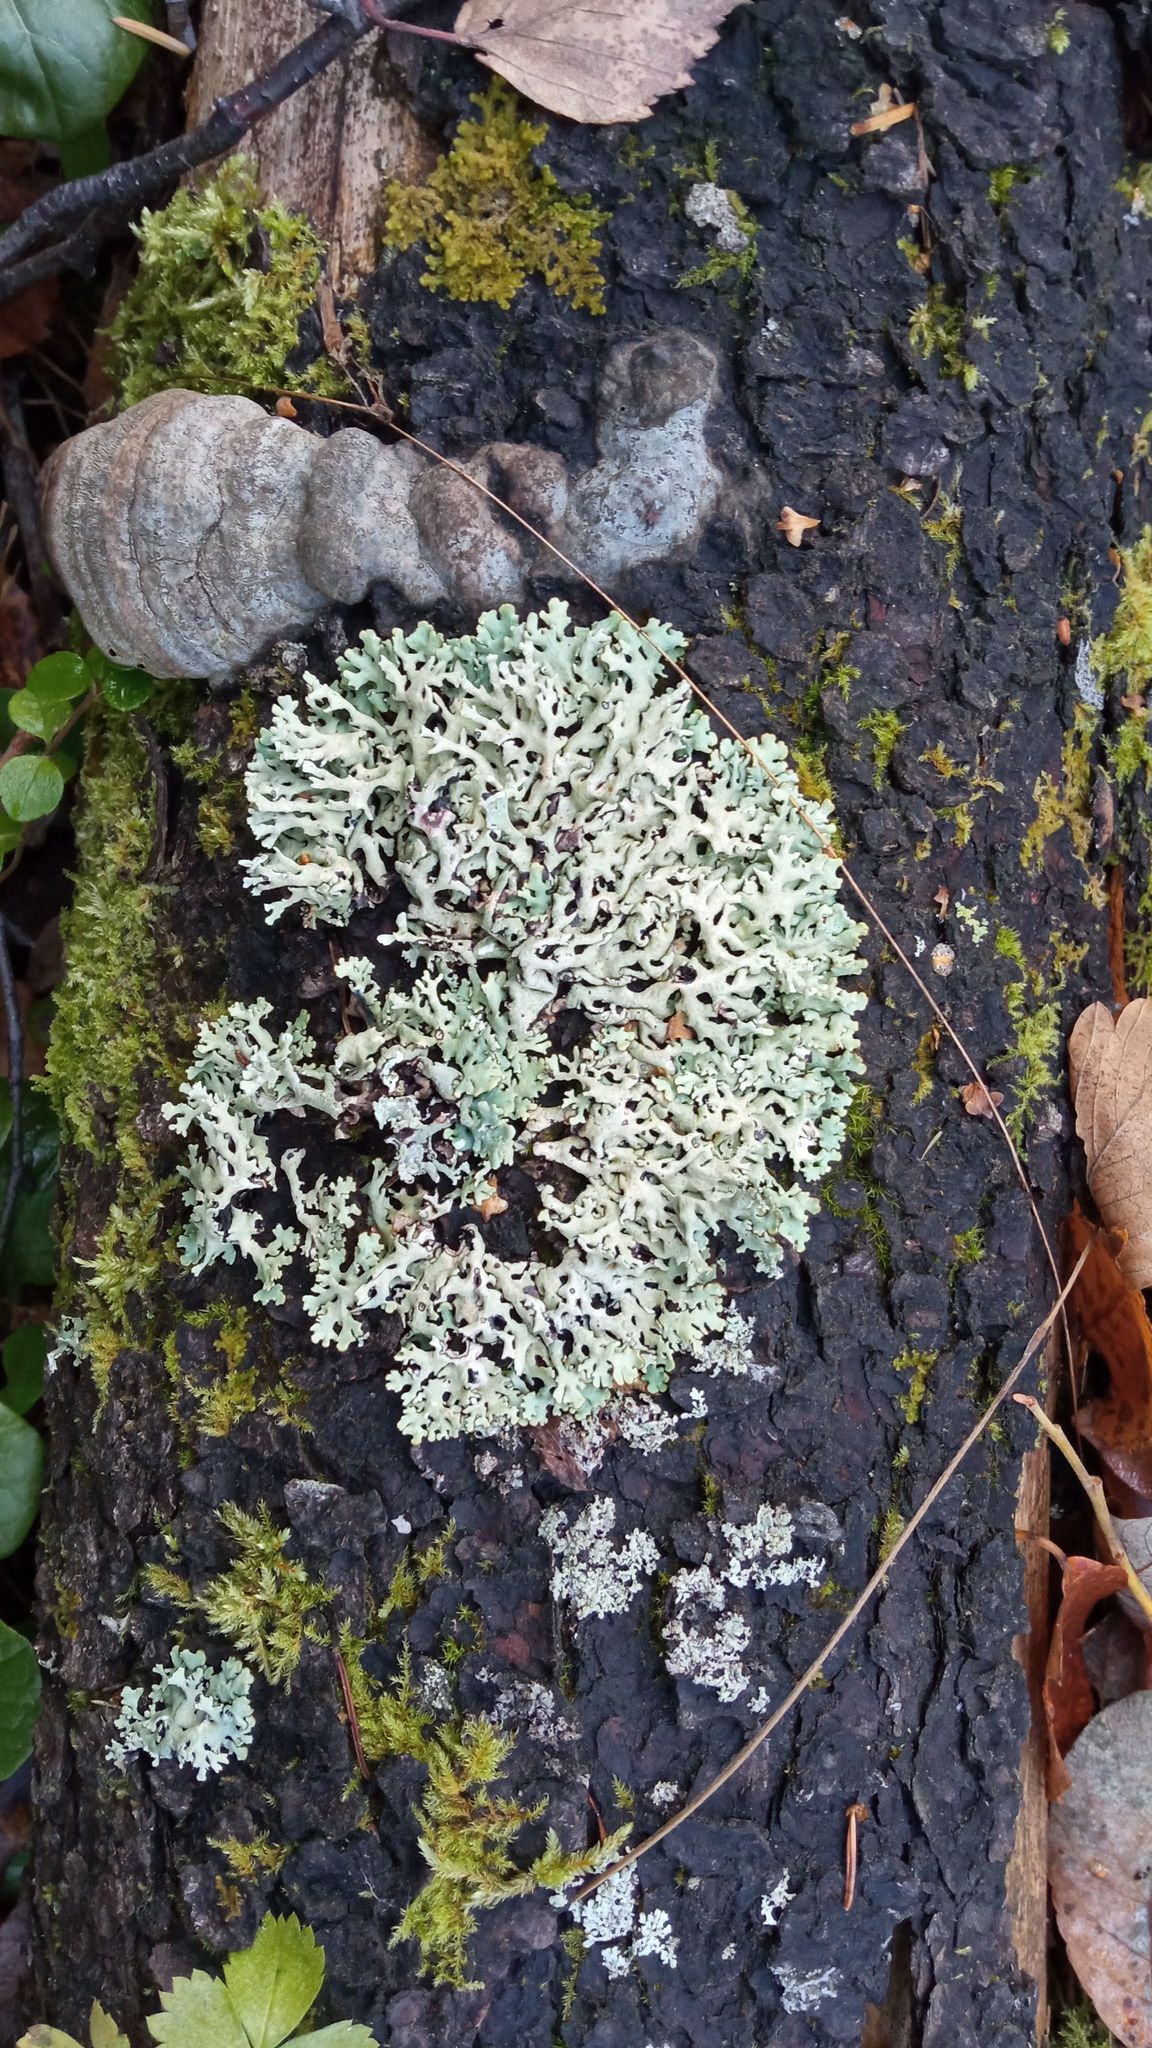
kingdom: Fungi
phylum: Ascomycota
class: Lecanoromycetes
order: Lecanorales
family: Parmeliaceae
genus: Hypogymnia
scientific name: Hypogymnia physodes
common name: Dark crottle
